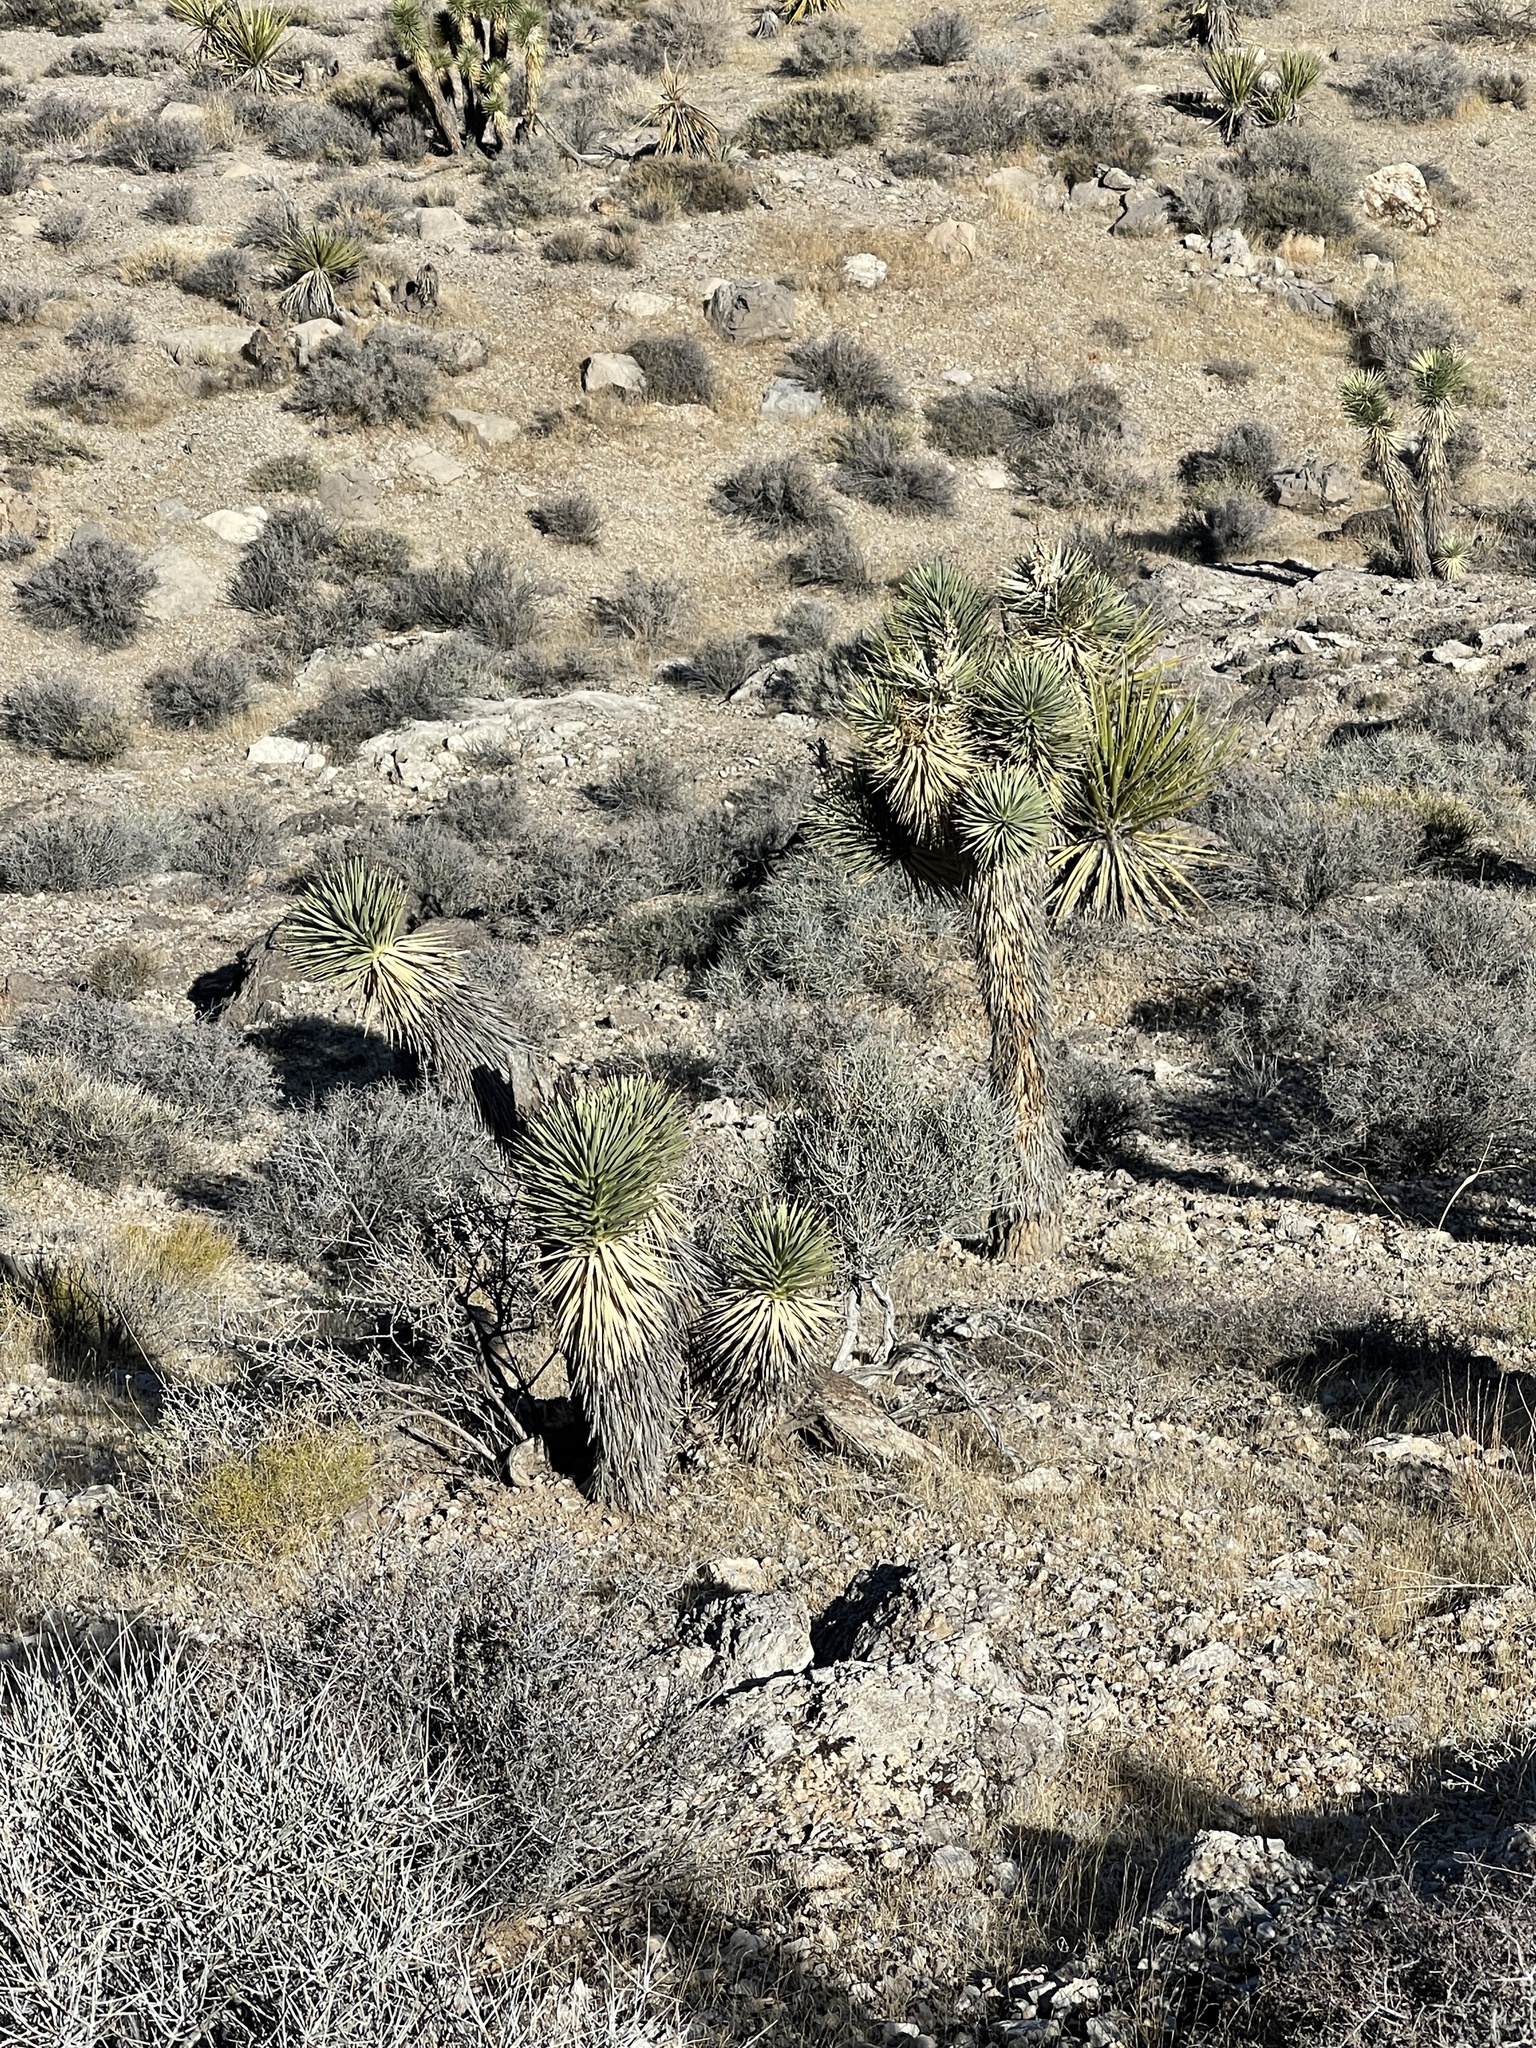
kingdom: Plantae
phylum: Tracheophyta
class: Liliopsida
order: Asparagales
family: Asparagaceae
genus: Yucca
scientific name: Yucca brevifolia
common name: Joshua tree
